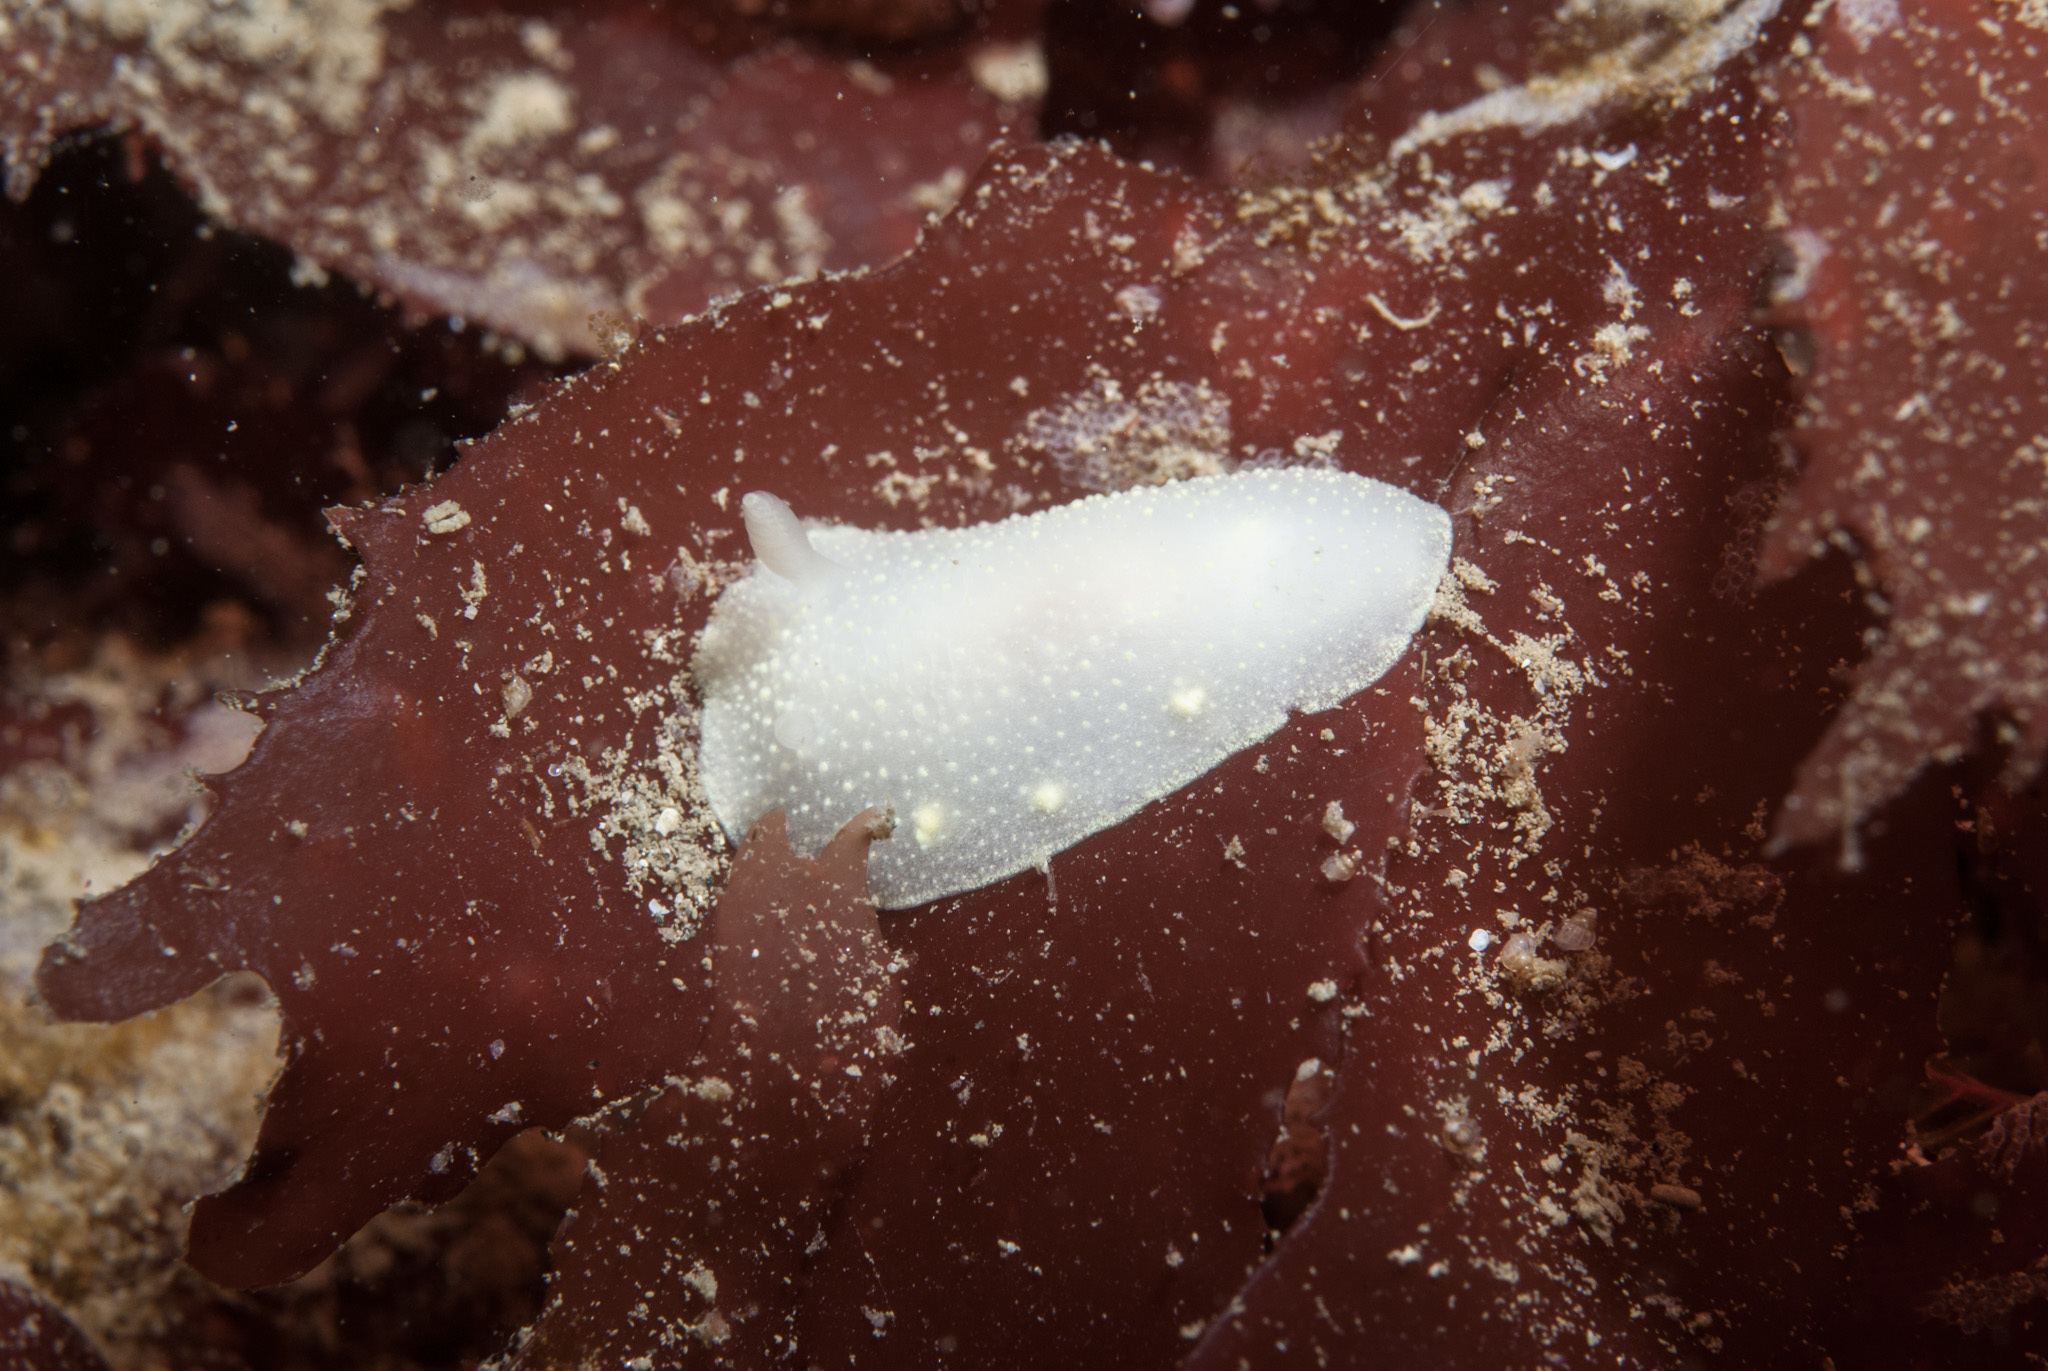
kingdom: Animalia
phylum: Mollusca
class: Gastropoda
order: Nudibranchia
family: Cadlinidae
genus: Cadlina
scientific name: Cadlina laevis
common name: White atlantic cadlina
